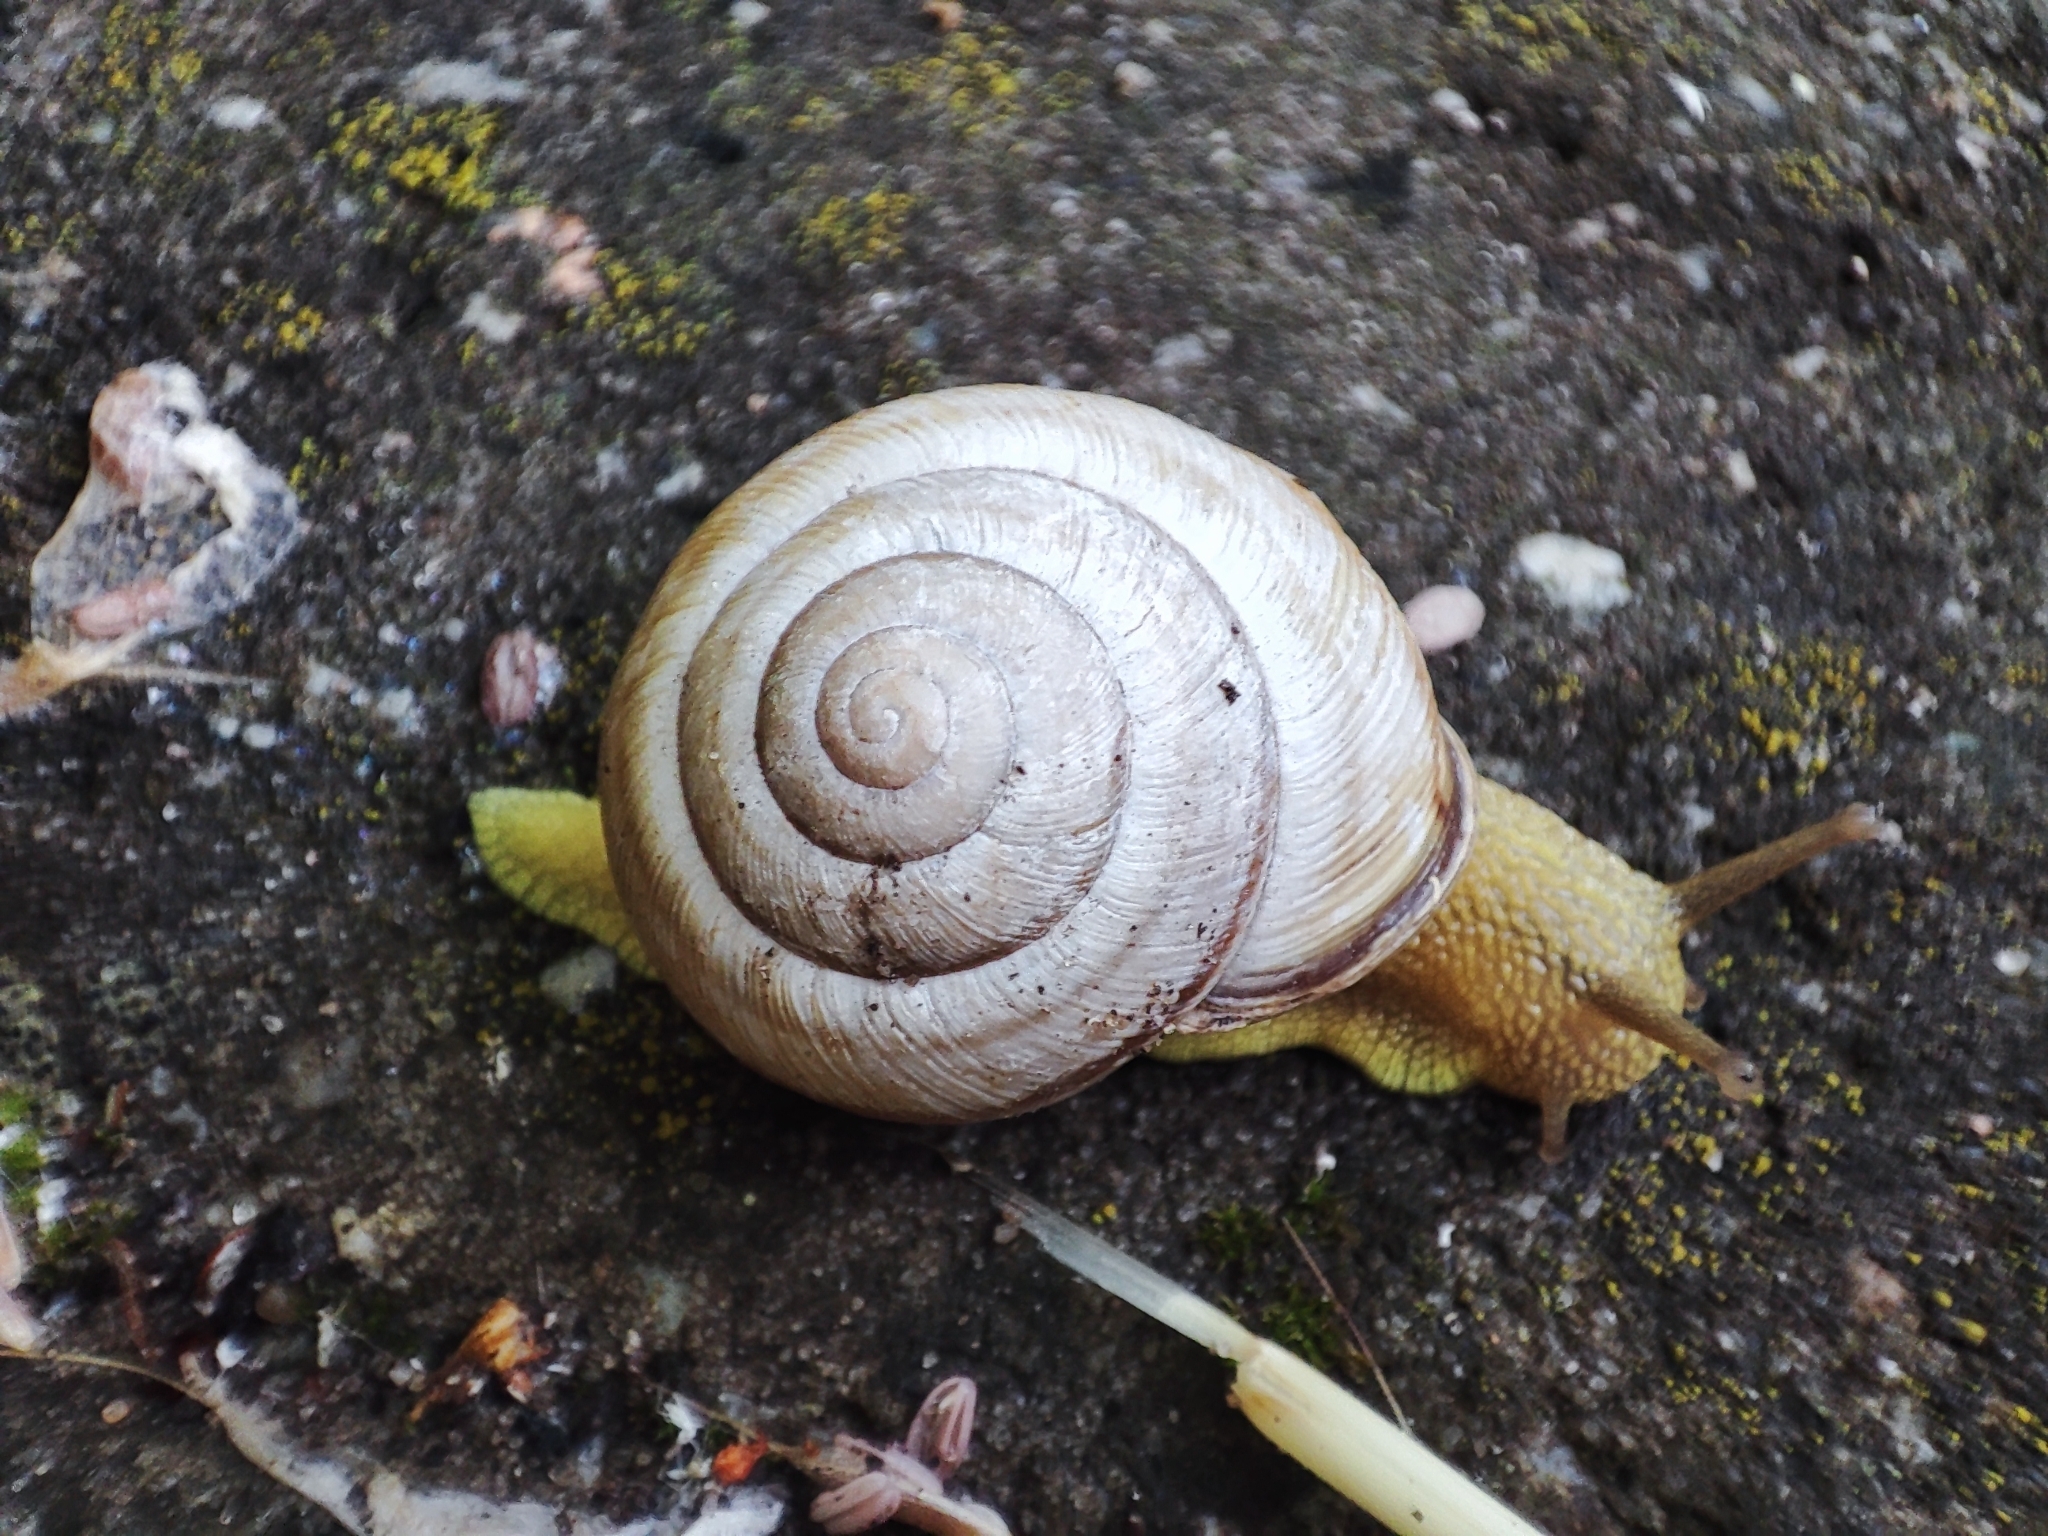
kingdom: Animalia
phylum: Mollusca
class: Gastropoda
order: Stylommatophora
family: Helicidae
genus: Caucasotachea
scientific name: Caucasotachea vindobonensis
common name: European helicid land snail
